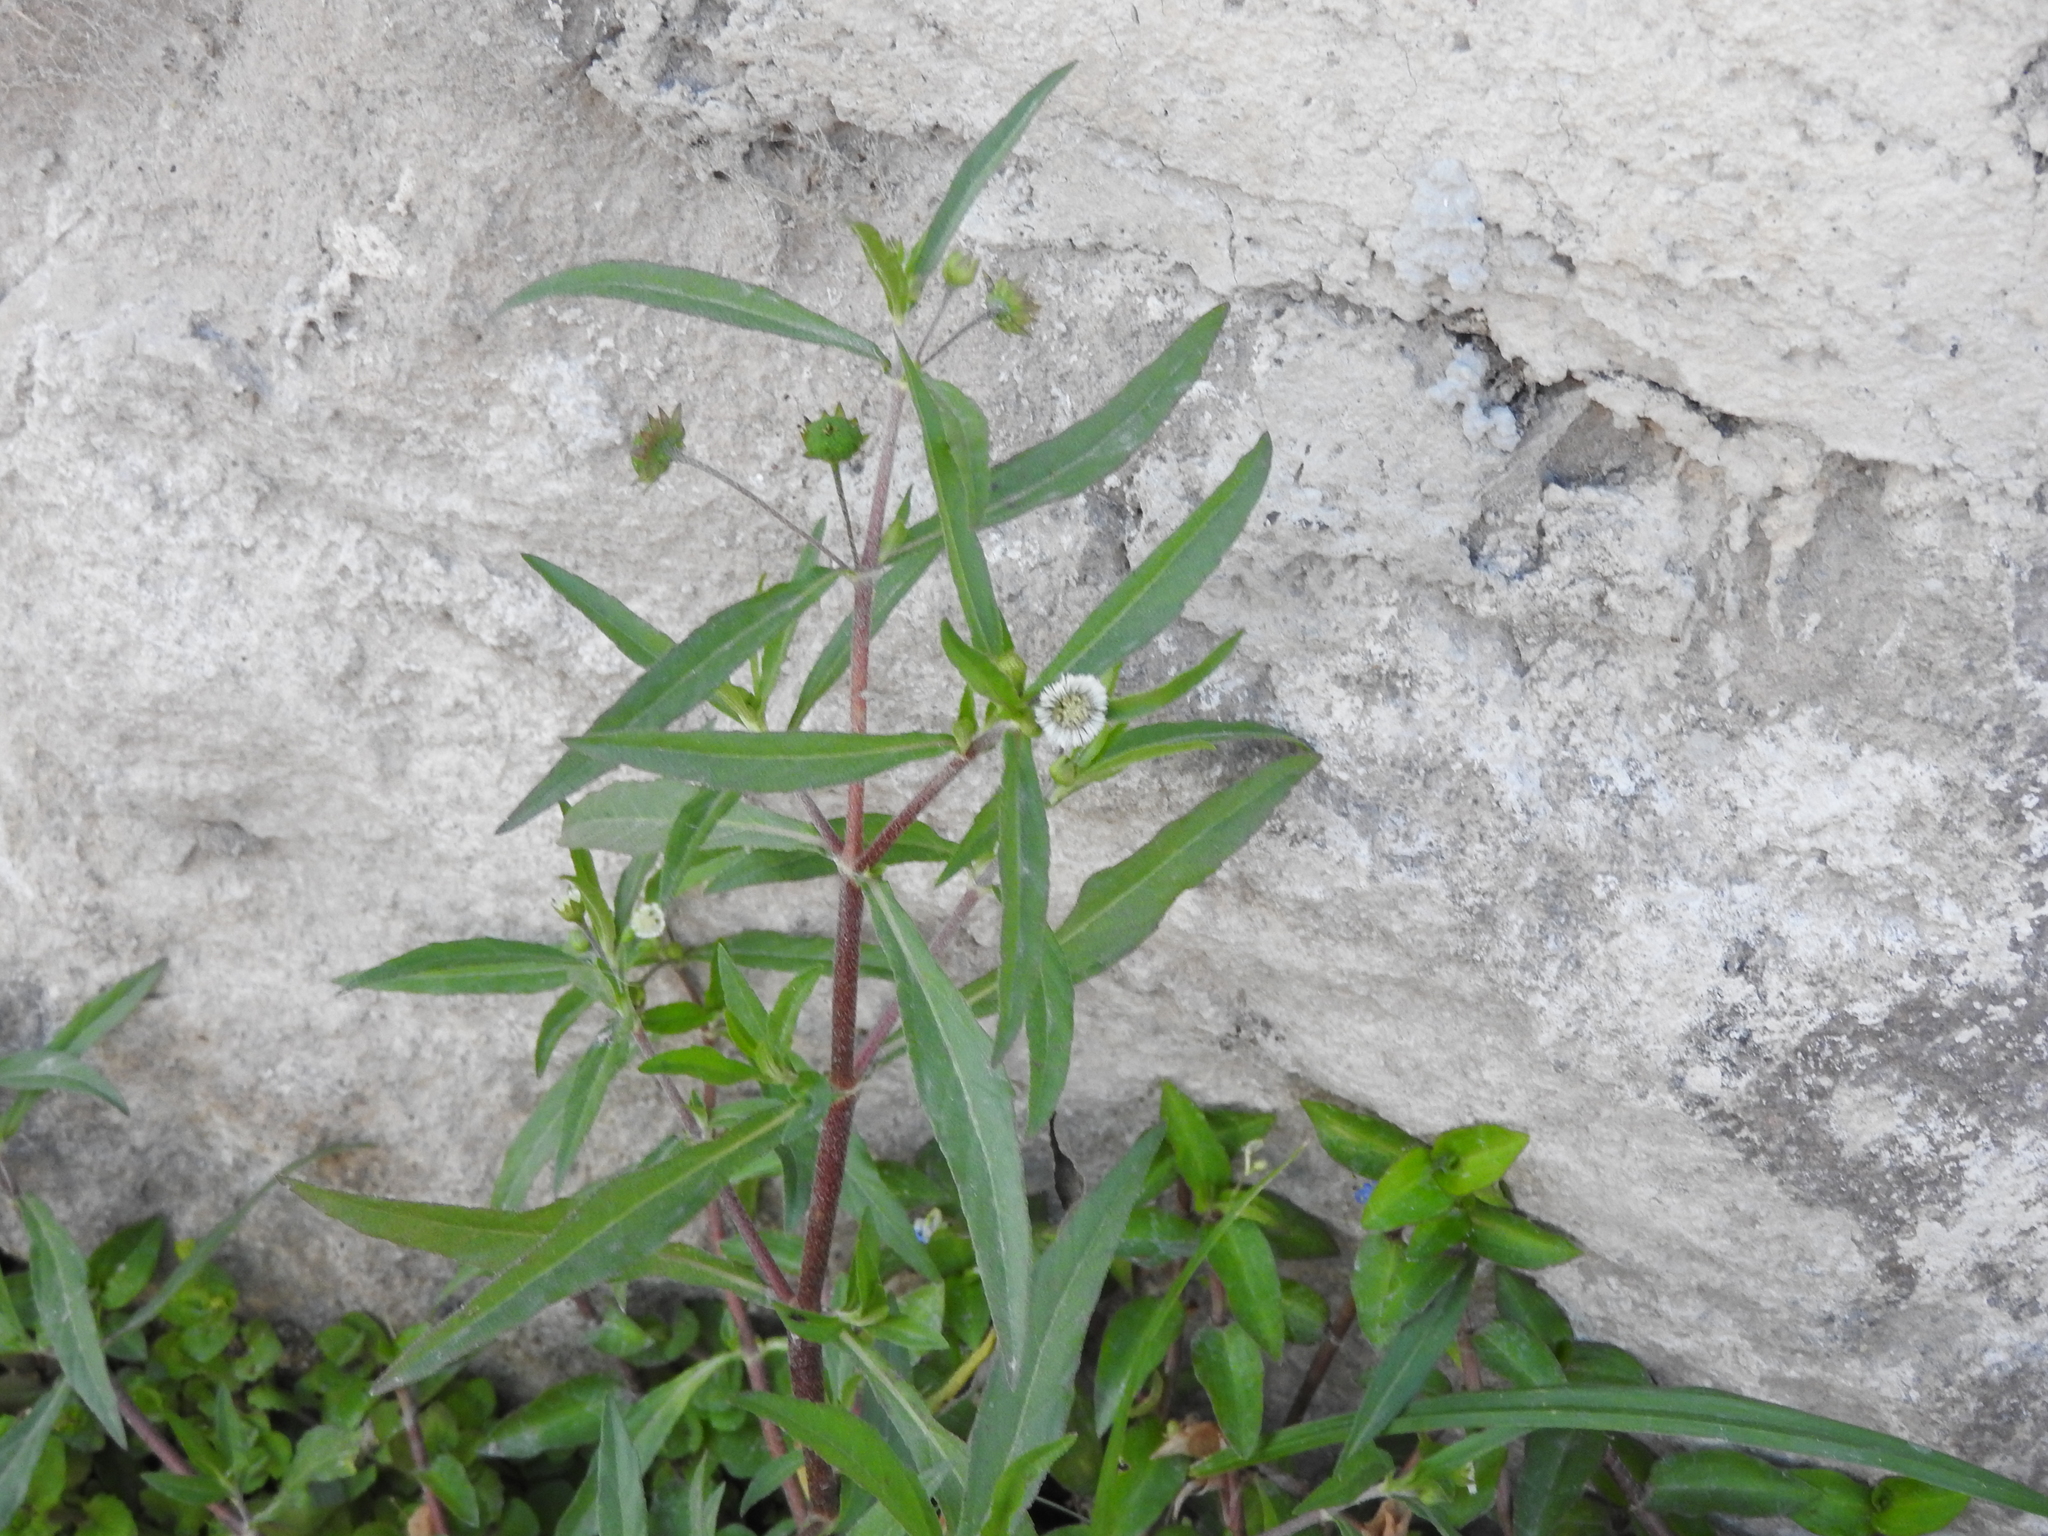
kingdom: Plantae
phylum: Tracheophyta
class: Magnoliopsida
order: Asterales
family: Asteraceae
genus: Eclipta
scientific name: Eclipta prostrata
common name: False daisy
